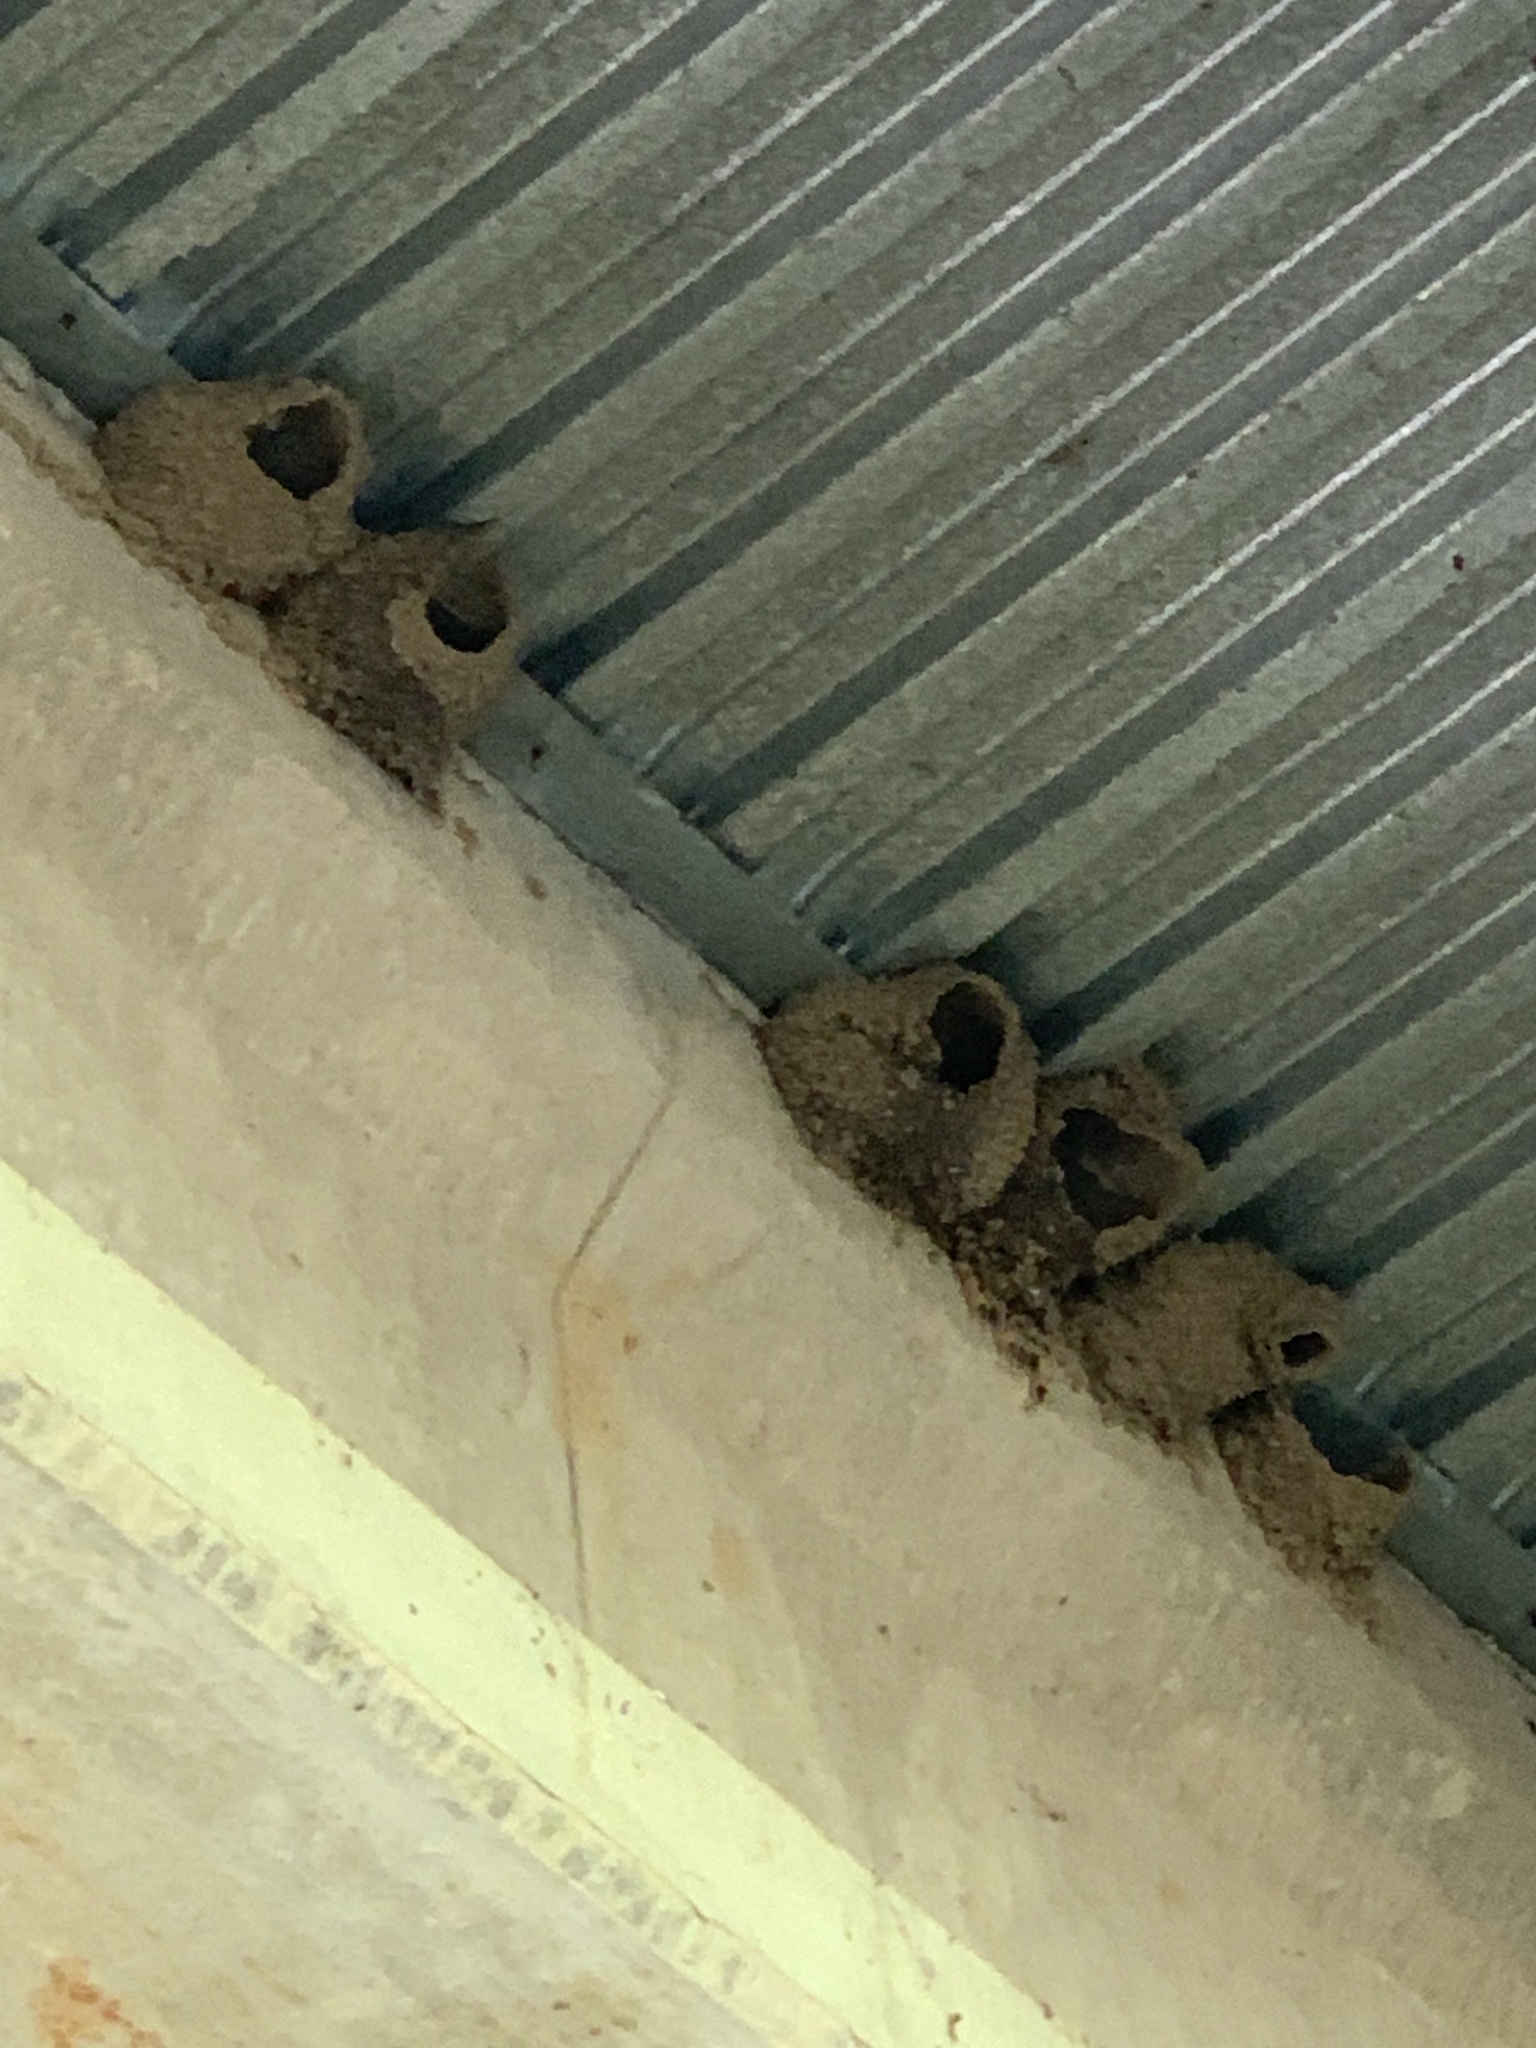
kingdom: Animalia
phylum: Chordata
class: Aves
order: Passeriformes
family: Hirundinidae
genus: Petrochelidon
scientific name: Petrochelidon pyrrhonota
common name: American cliff swallow
